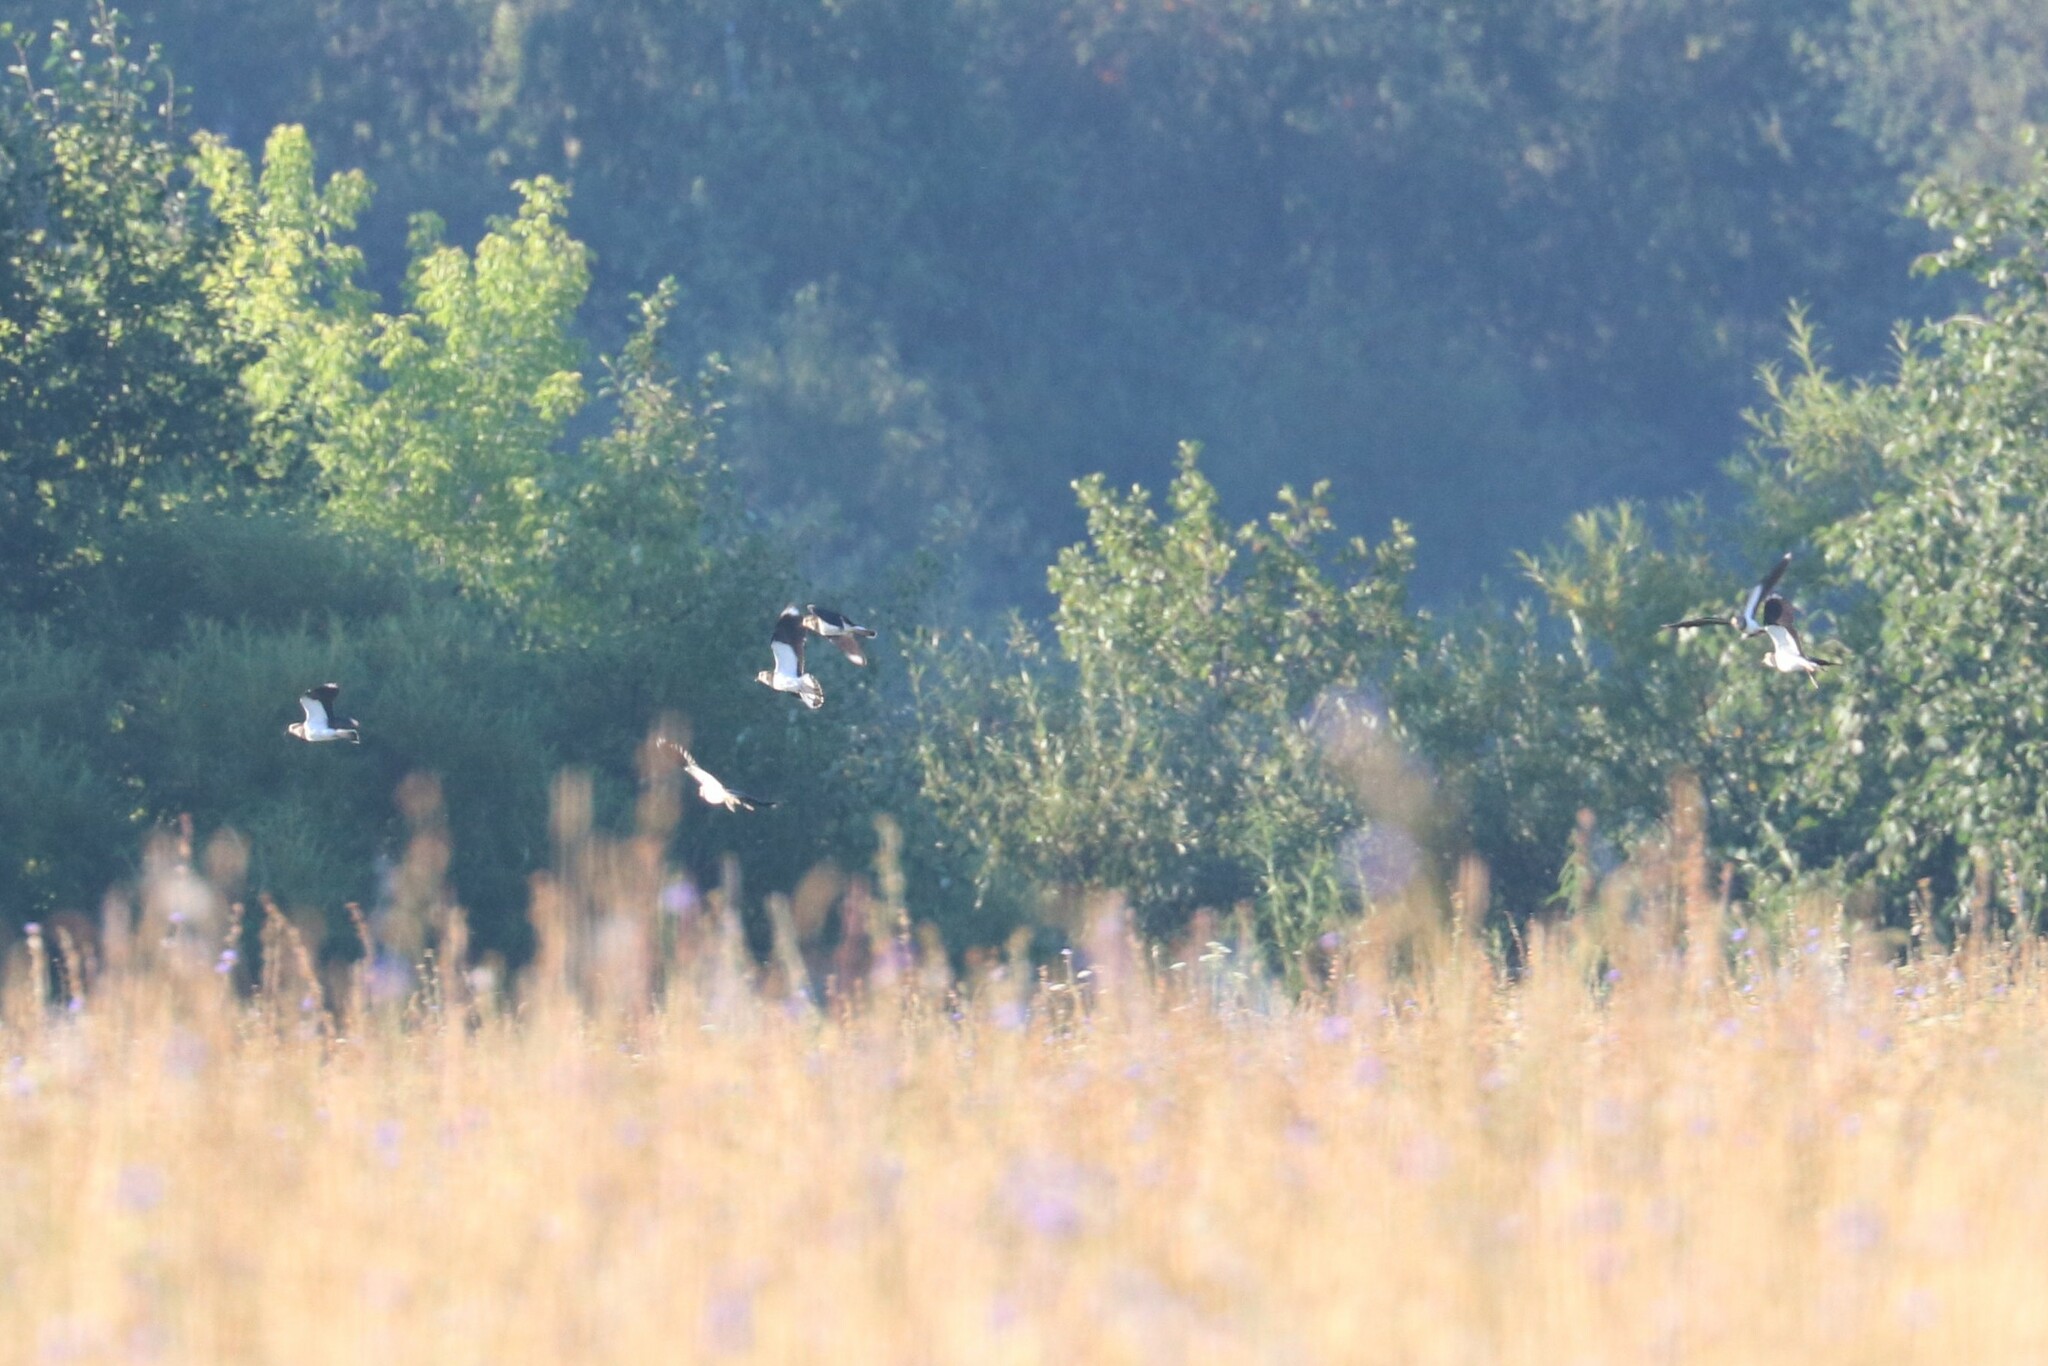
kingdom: Animalia
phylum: Chordata
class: Aves
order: Charadriiformes
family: Charadriidae
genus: Vanellus
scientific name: Vanellus vanellus
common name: Northern lapwing
